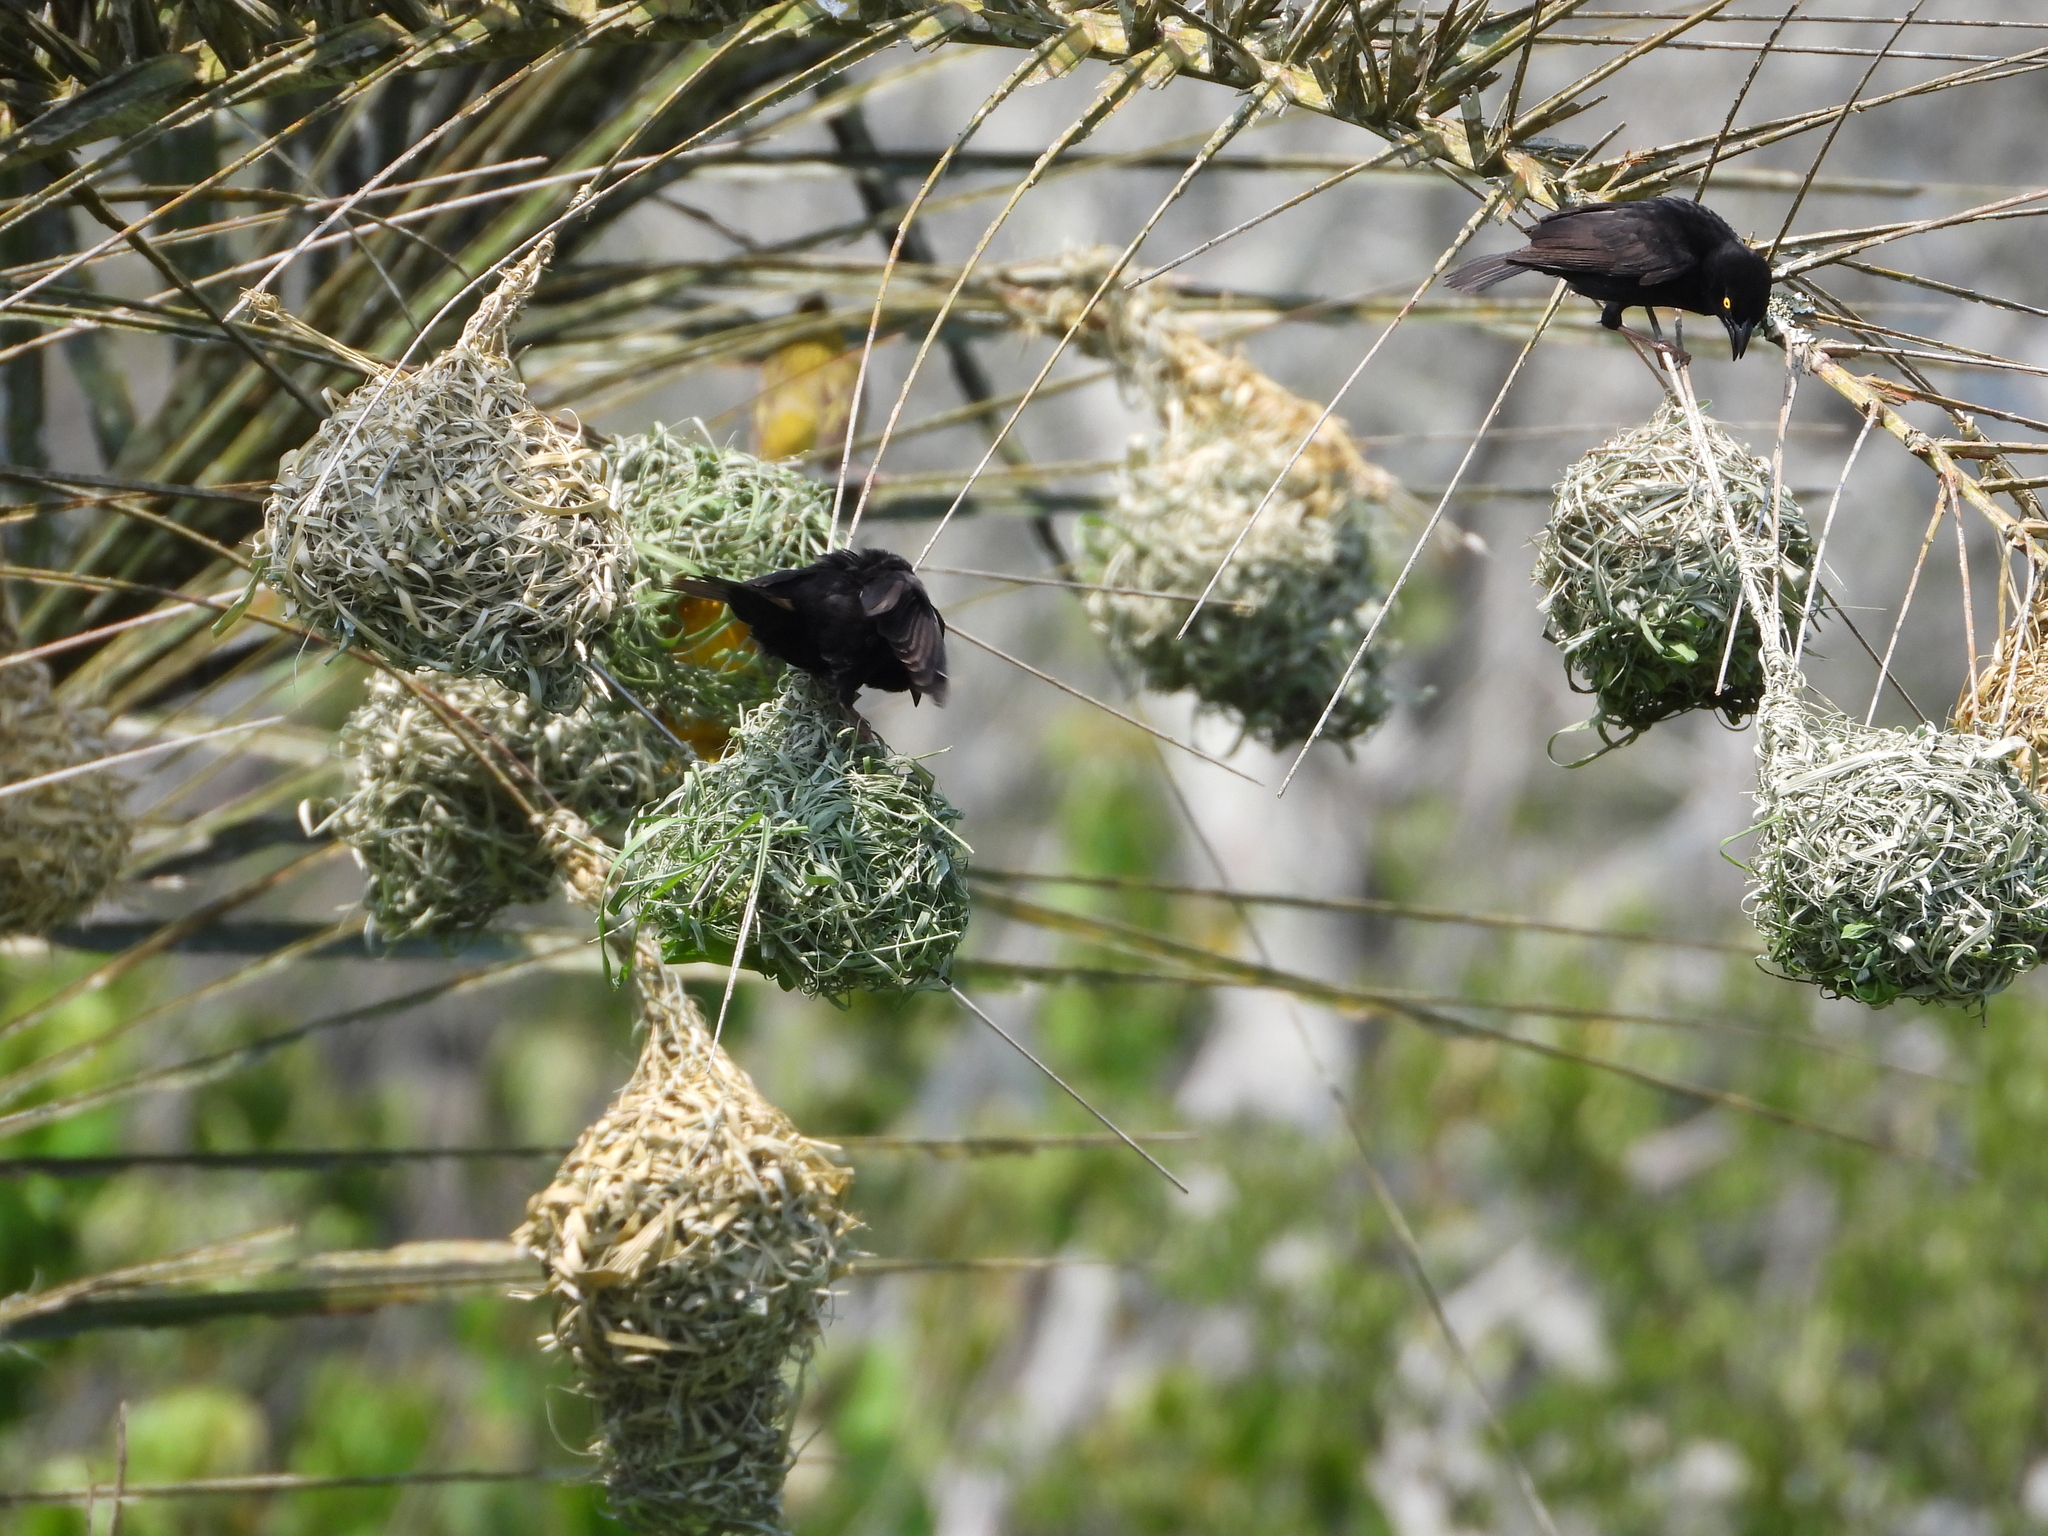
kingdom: Animalia
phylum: Chordata
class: Aves
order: Passeriformes
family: Ploceidae
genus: Ploceus
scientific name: Ploceus nigerrimus
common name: Vieillot's black weaver
